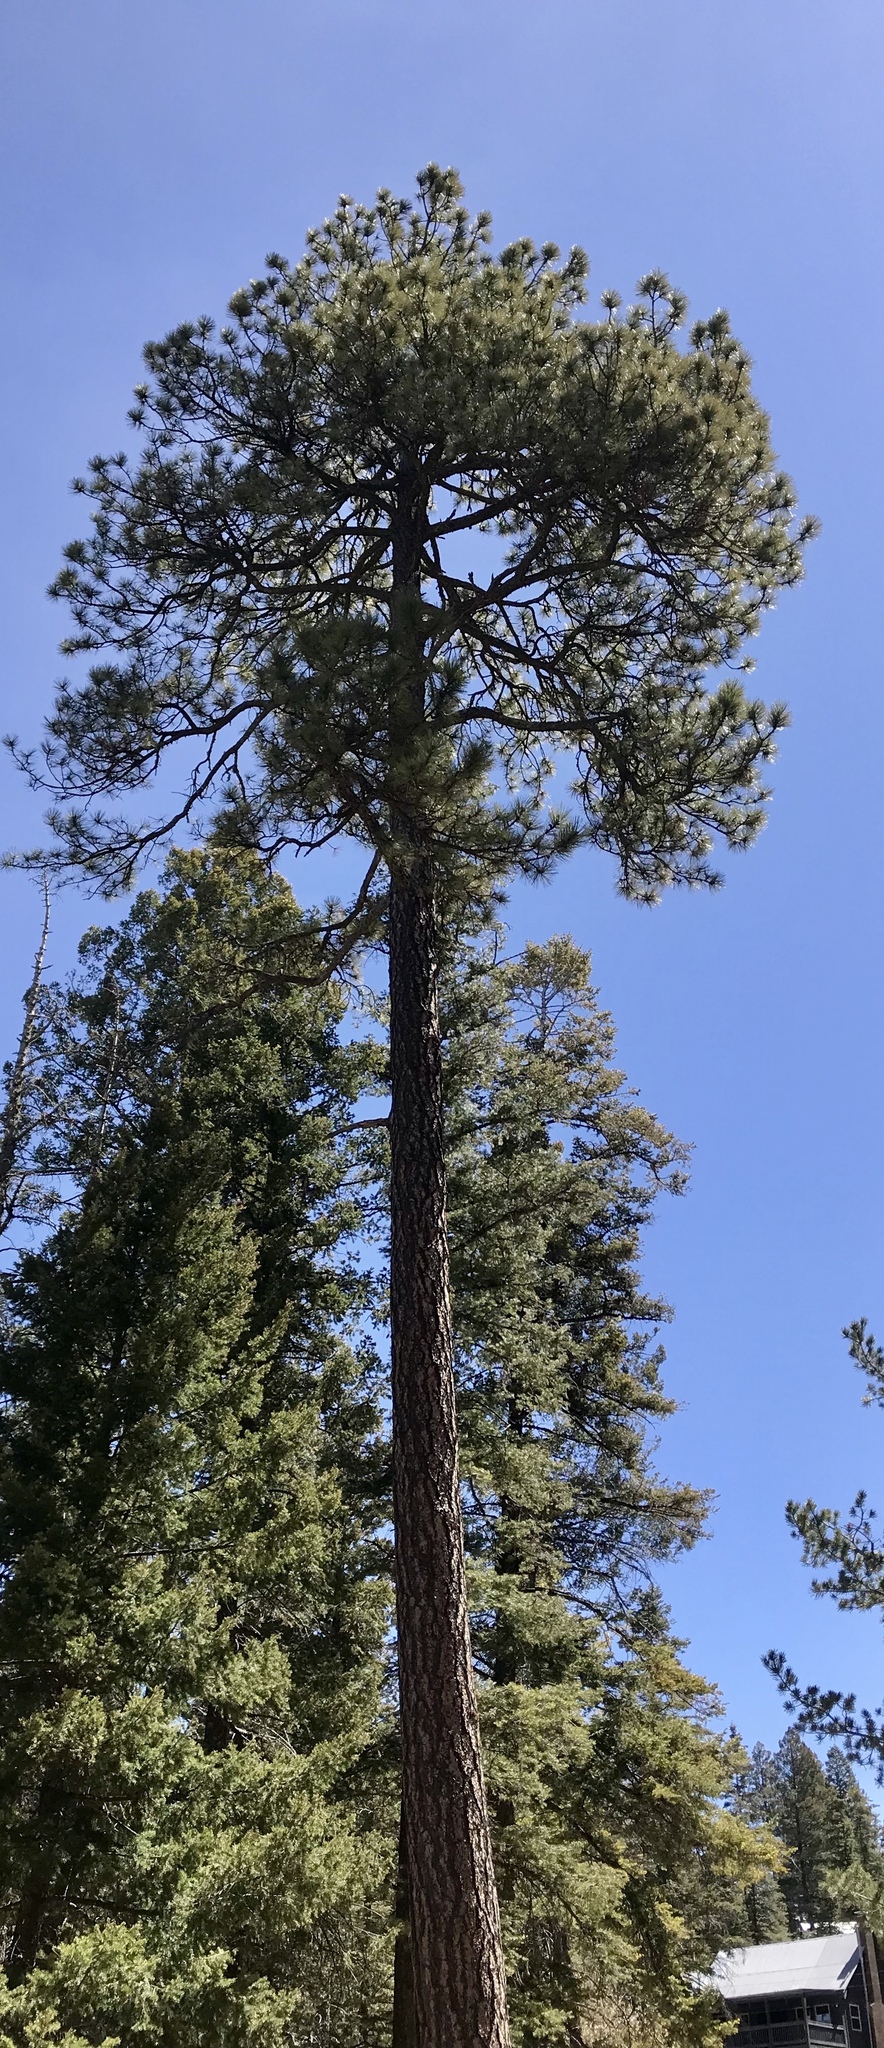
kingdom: Plantae
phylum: Tracheophyta
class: Pinopsida
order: Pinales
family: Pinaceae
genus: Pinus
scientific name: Pinus ponderosa
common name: Western yellow-pine
